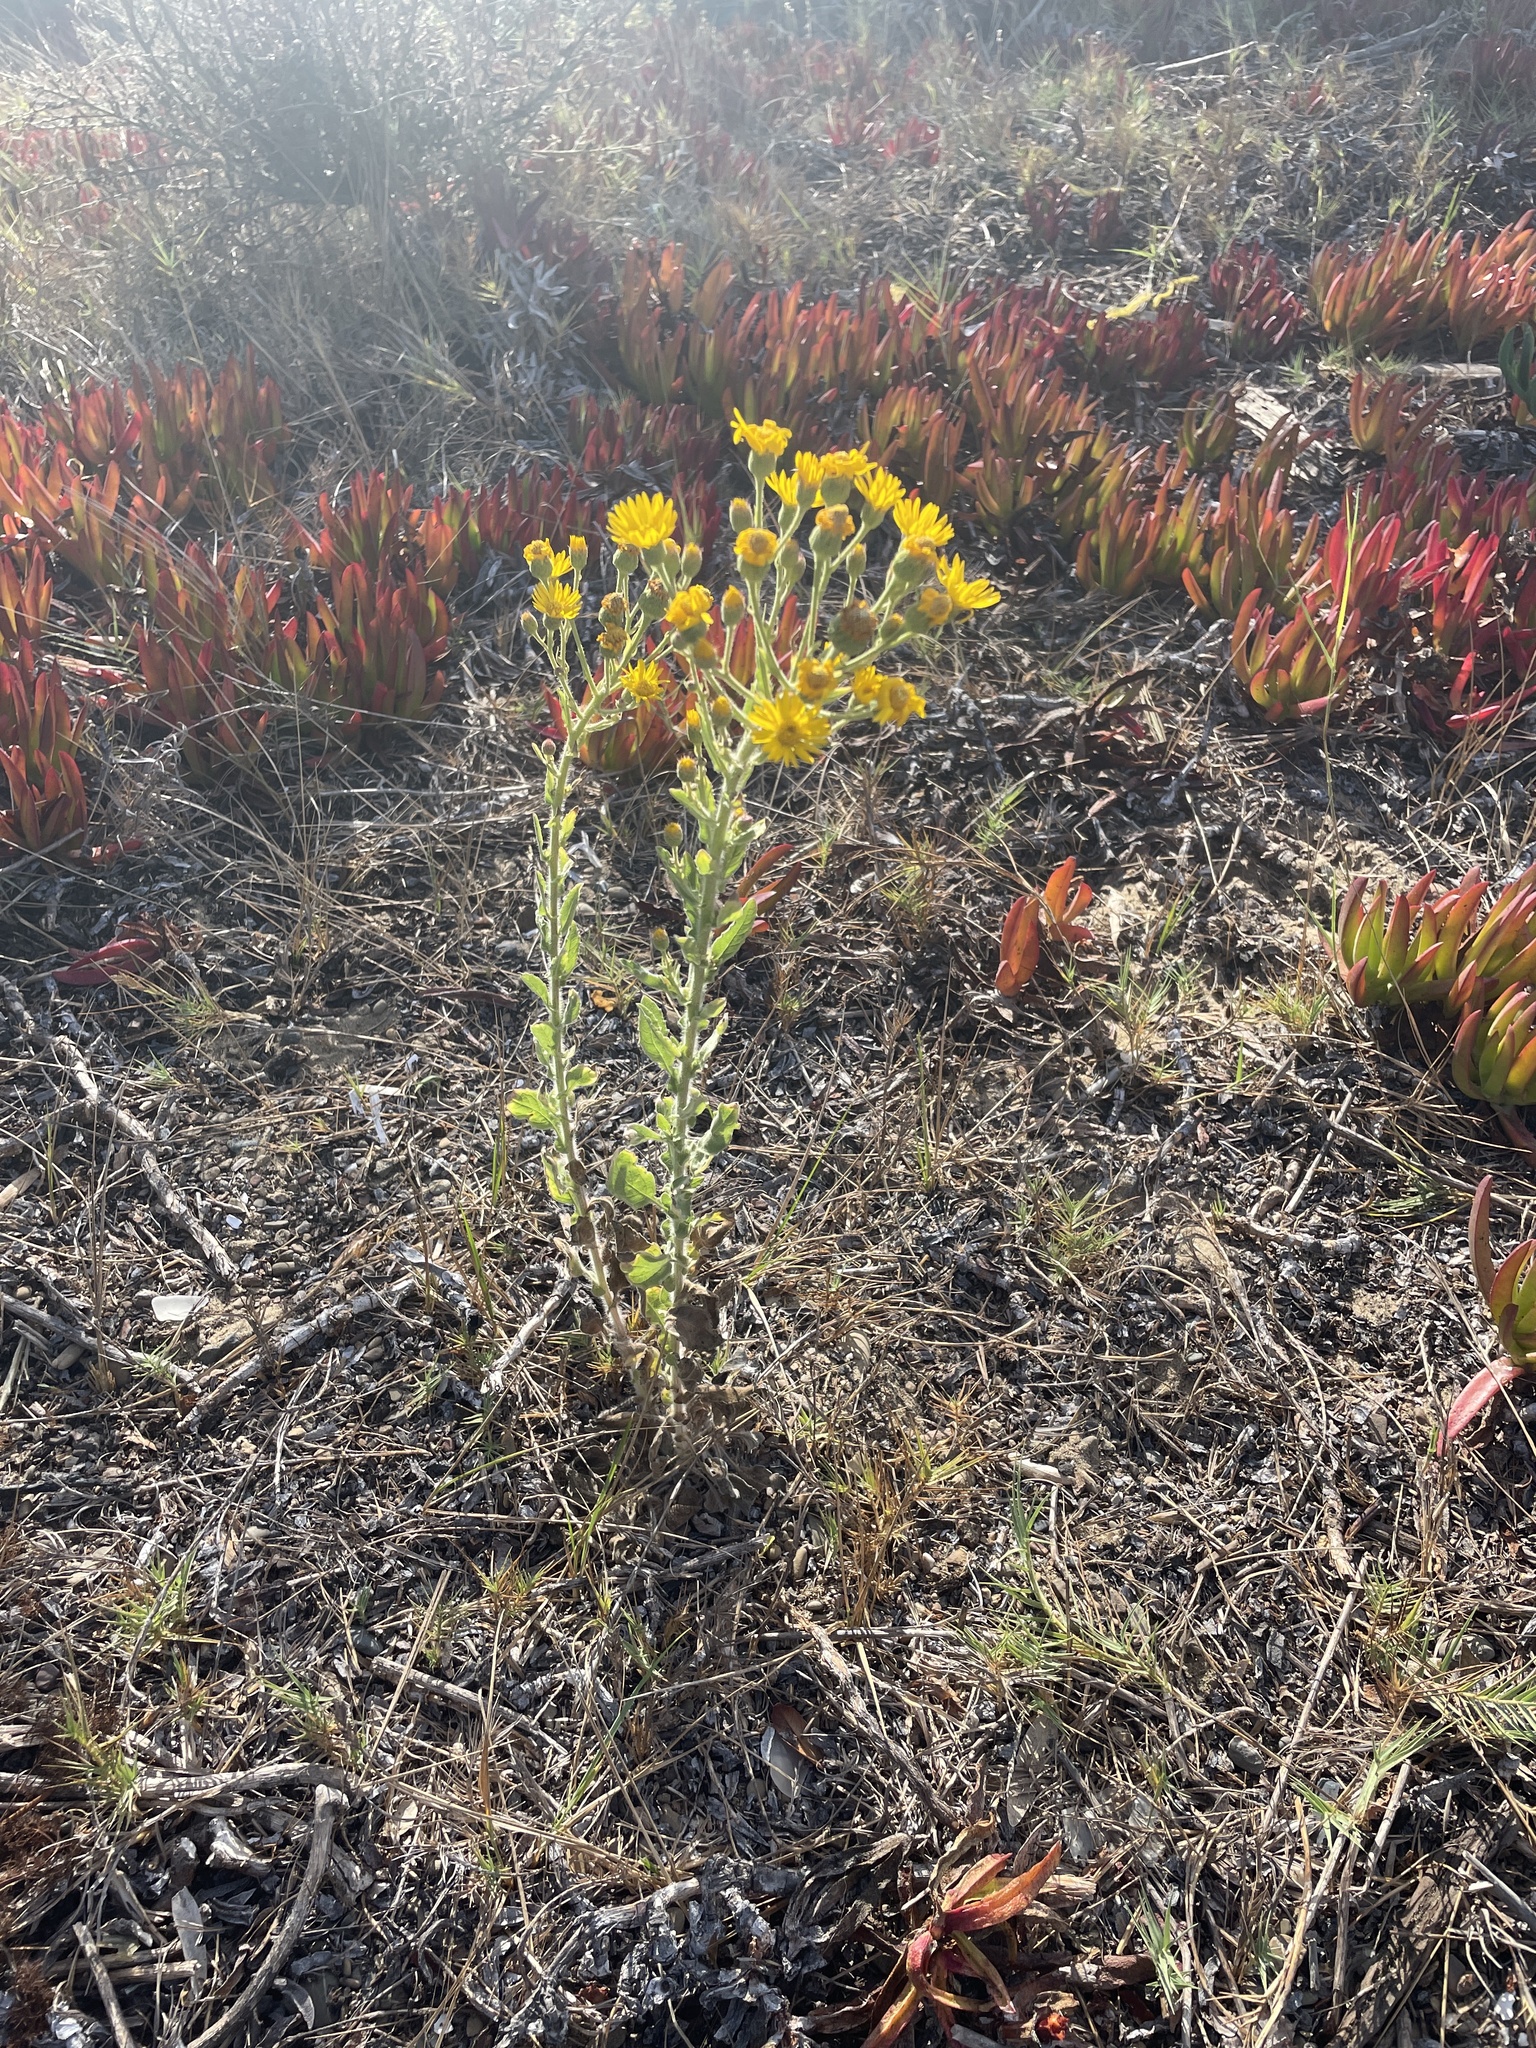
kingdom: Plantae
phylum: Tracheophyta
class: Magnoliopsida
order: Asterales
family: Asteraceae
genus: Heterotheca
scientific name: Heterotheca grandiflora
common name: Telegraphweed
